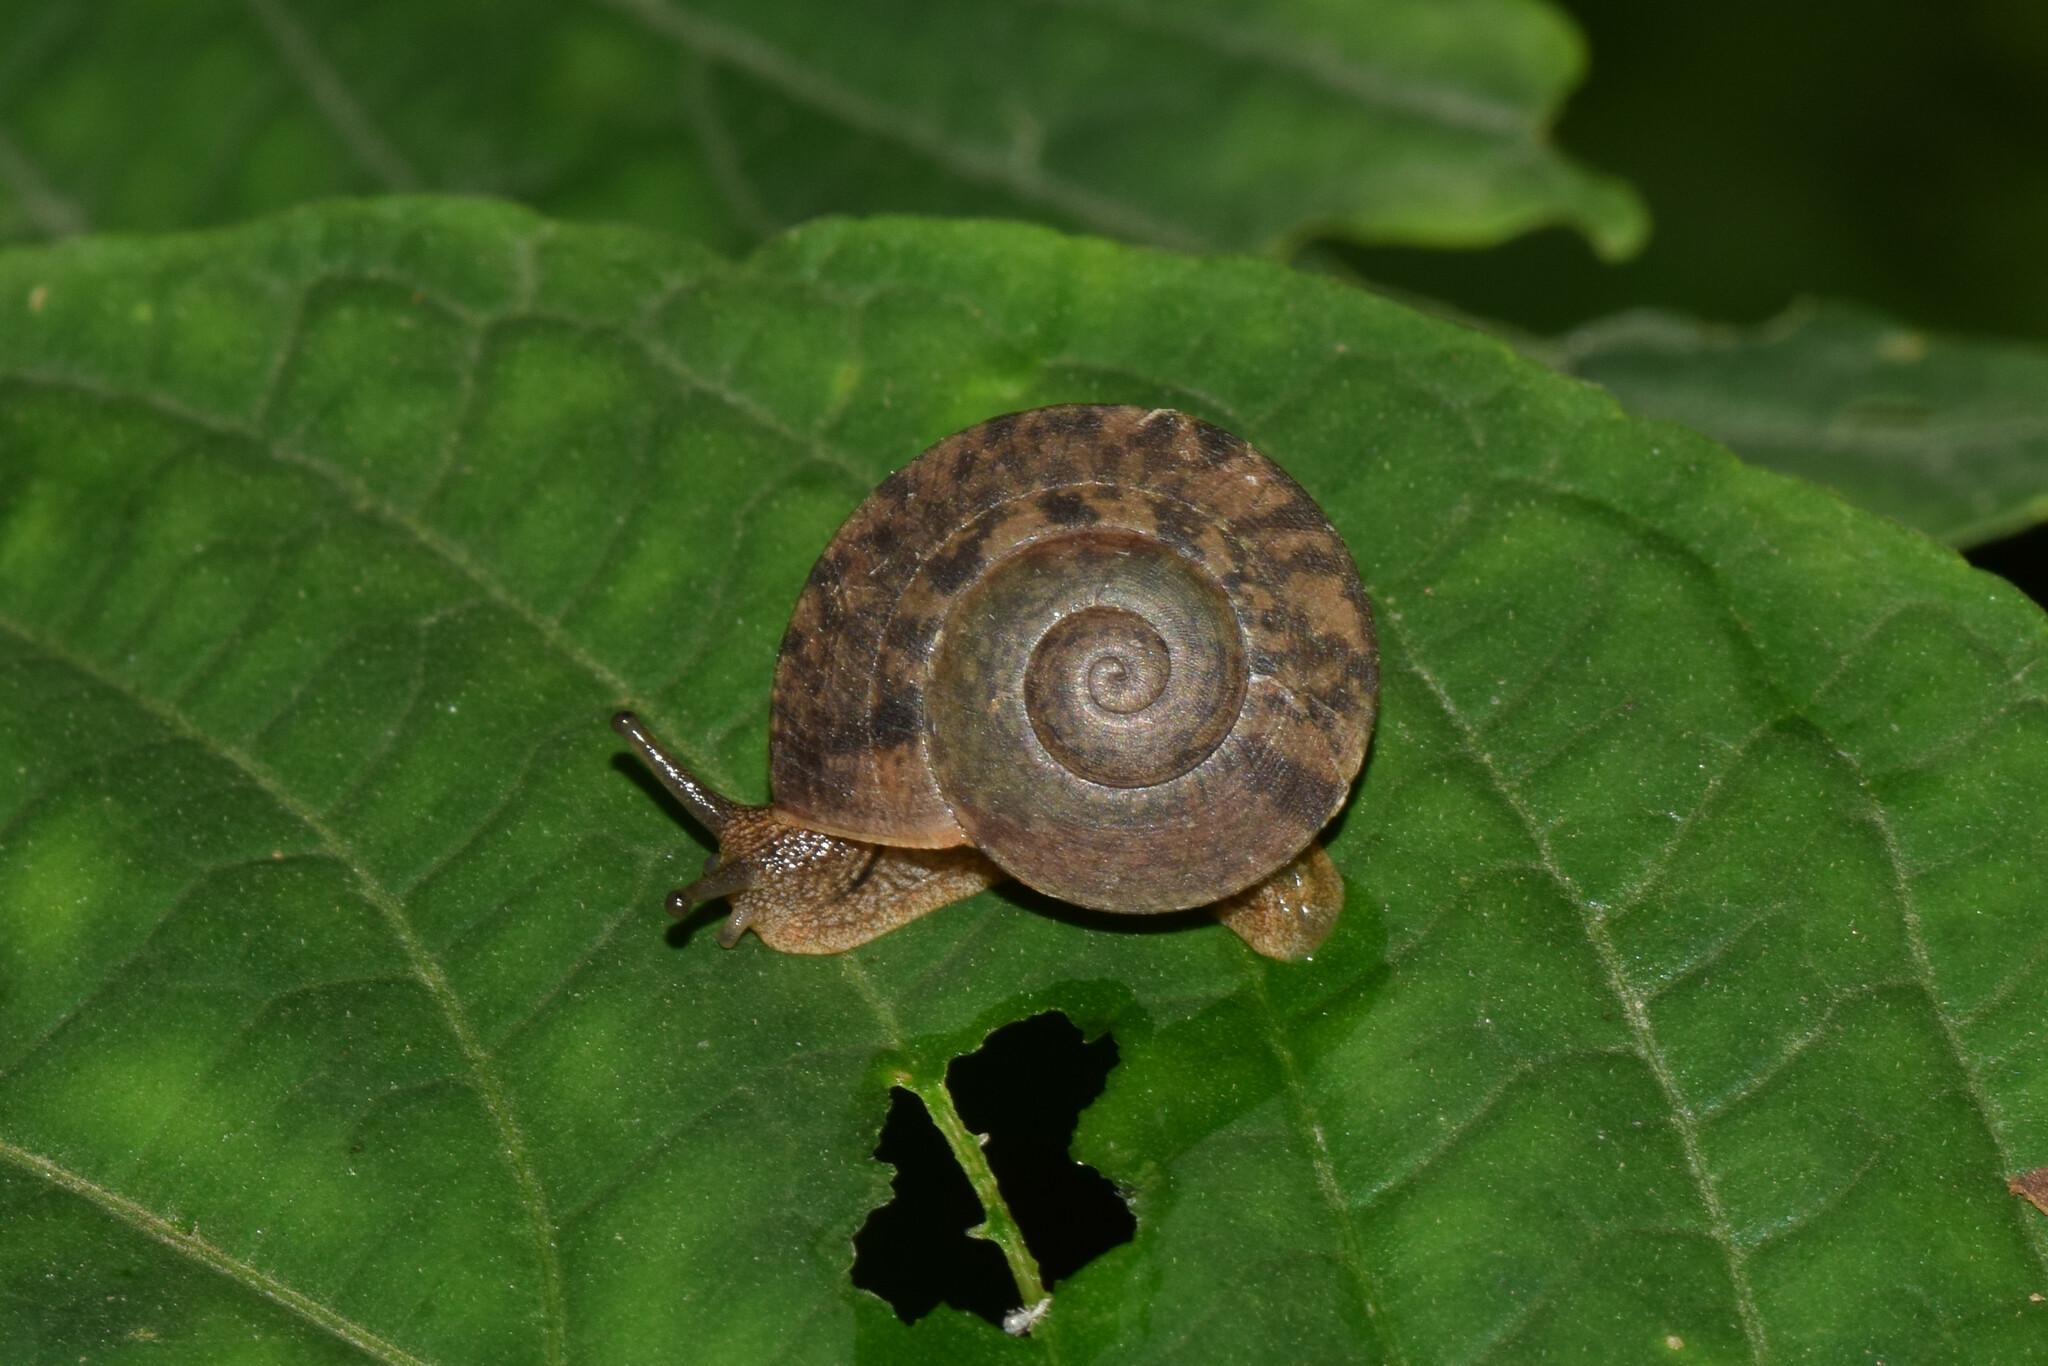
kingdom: Animalia
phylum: Mollusca
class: Gastropoda
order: Stylommatophora
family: Ariophantidae
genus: Ariophanta
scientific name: Ariophanta himalana
